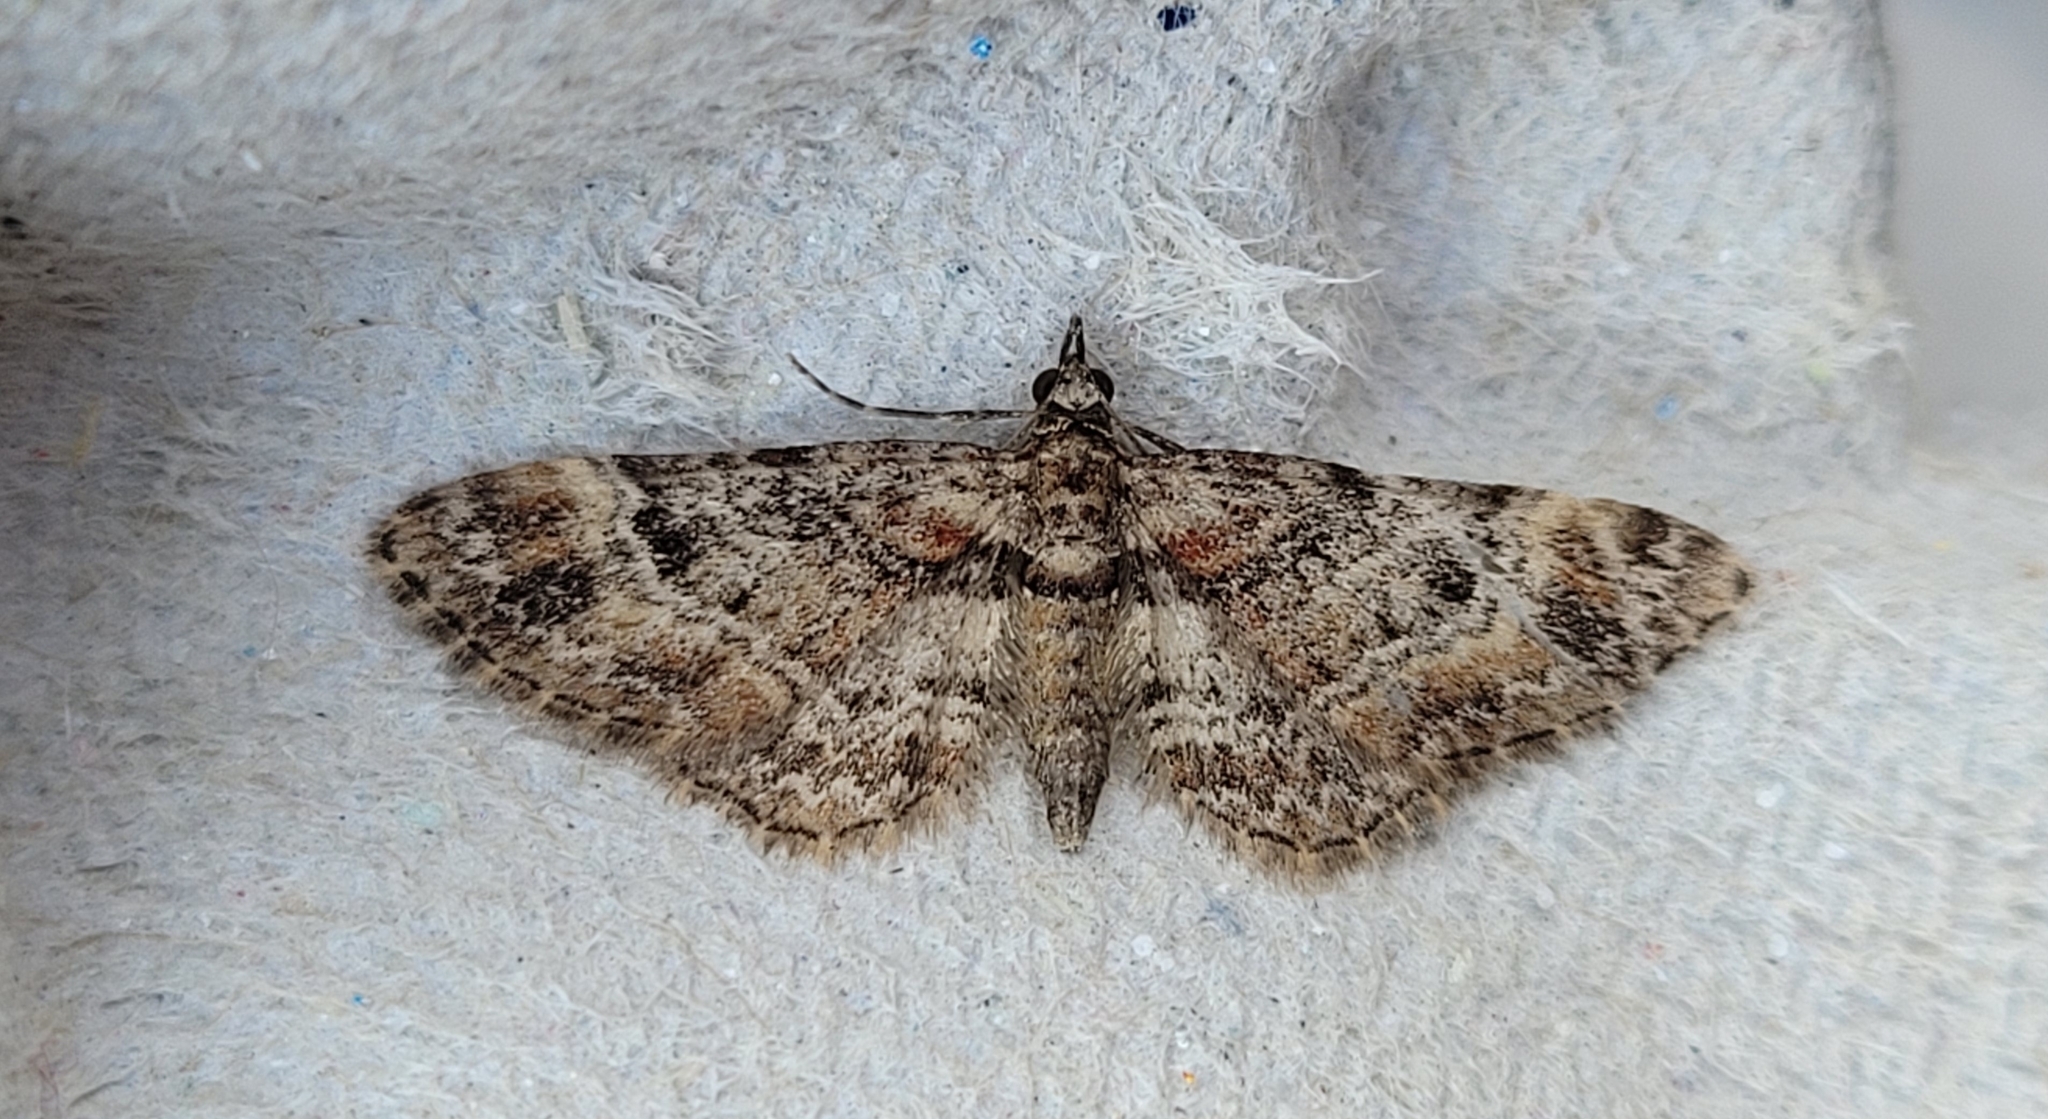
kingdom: Animalia
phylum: Arthropoda
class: Insecta
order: Lepidoptera
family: Geometridae
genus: Gymnoscelis
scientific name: Gymnoscelis rufifasciata
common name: Double-striped pug
